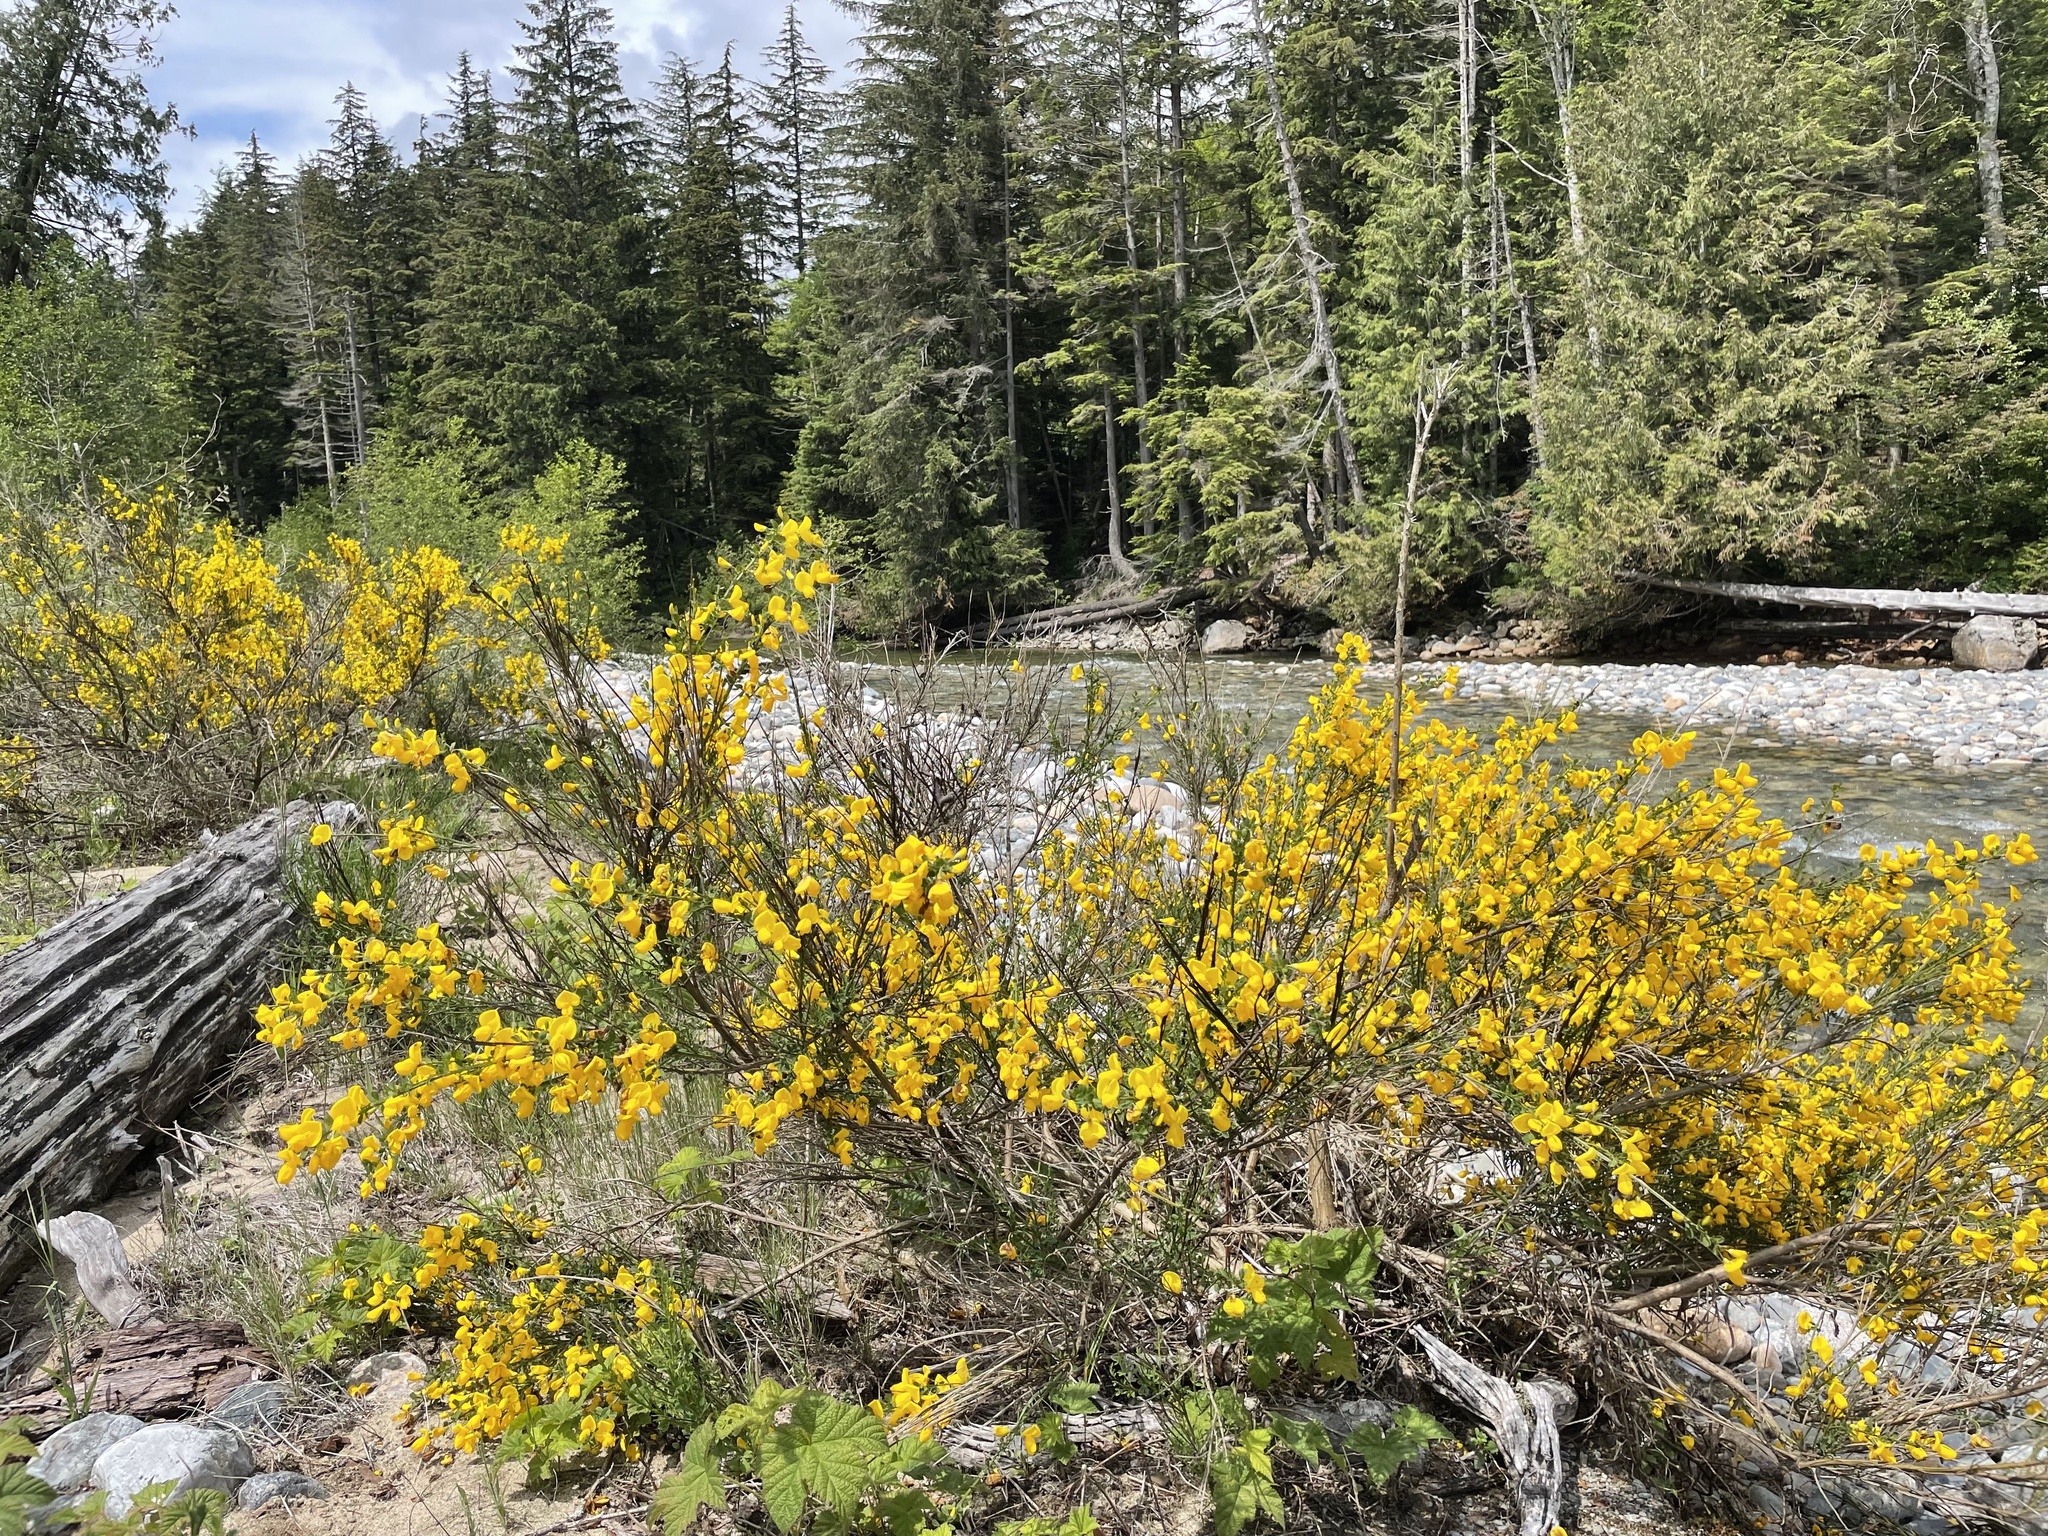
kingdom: Plantae
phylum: Tracheophyta
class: Magnoliopsida
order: Fabales
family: Fabaceae
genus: Cytisus
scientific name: Cytisus scoparius
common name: Scotch broom
